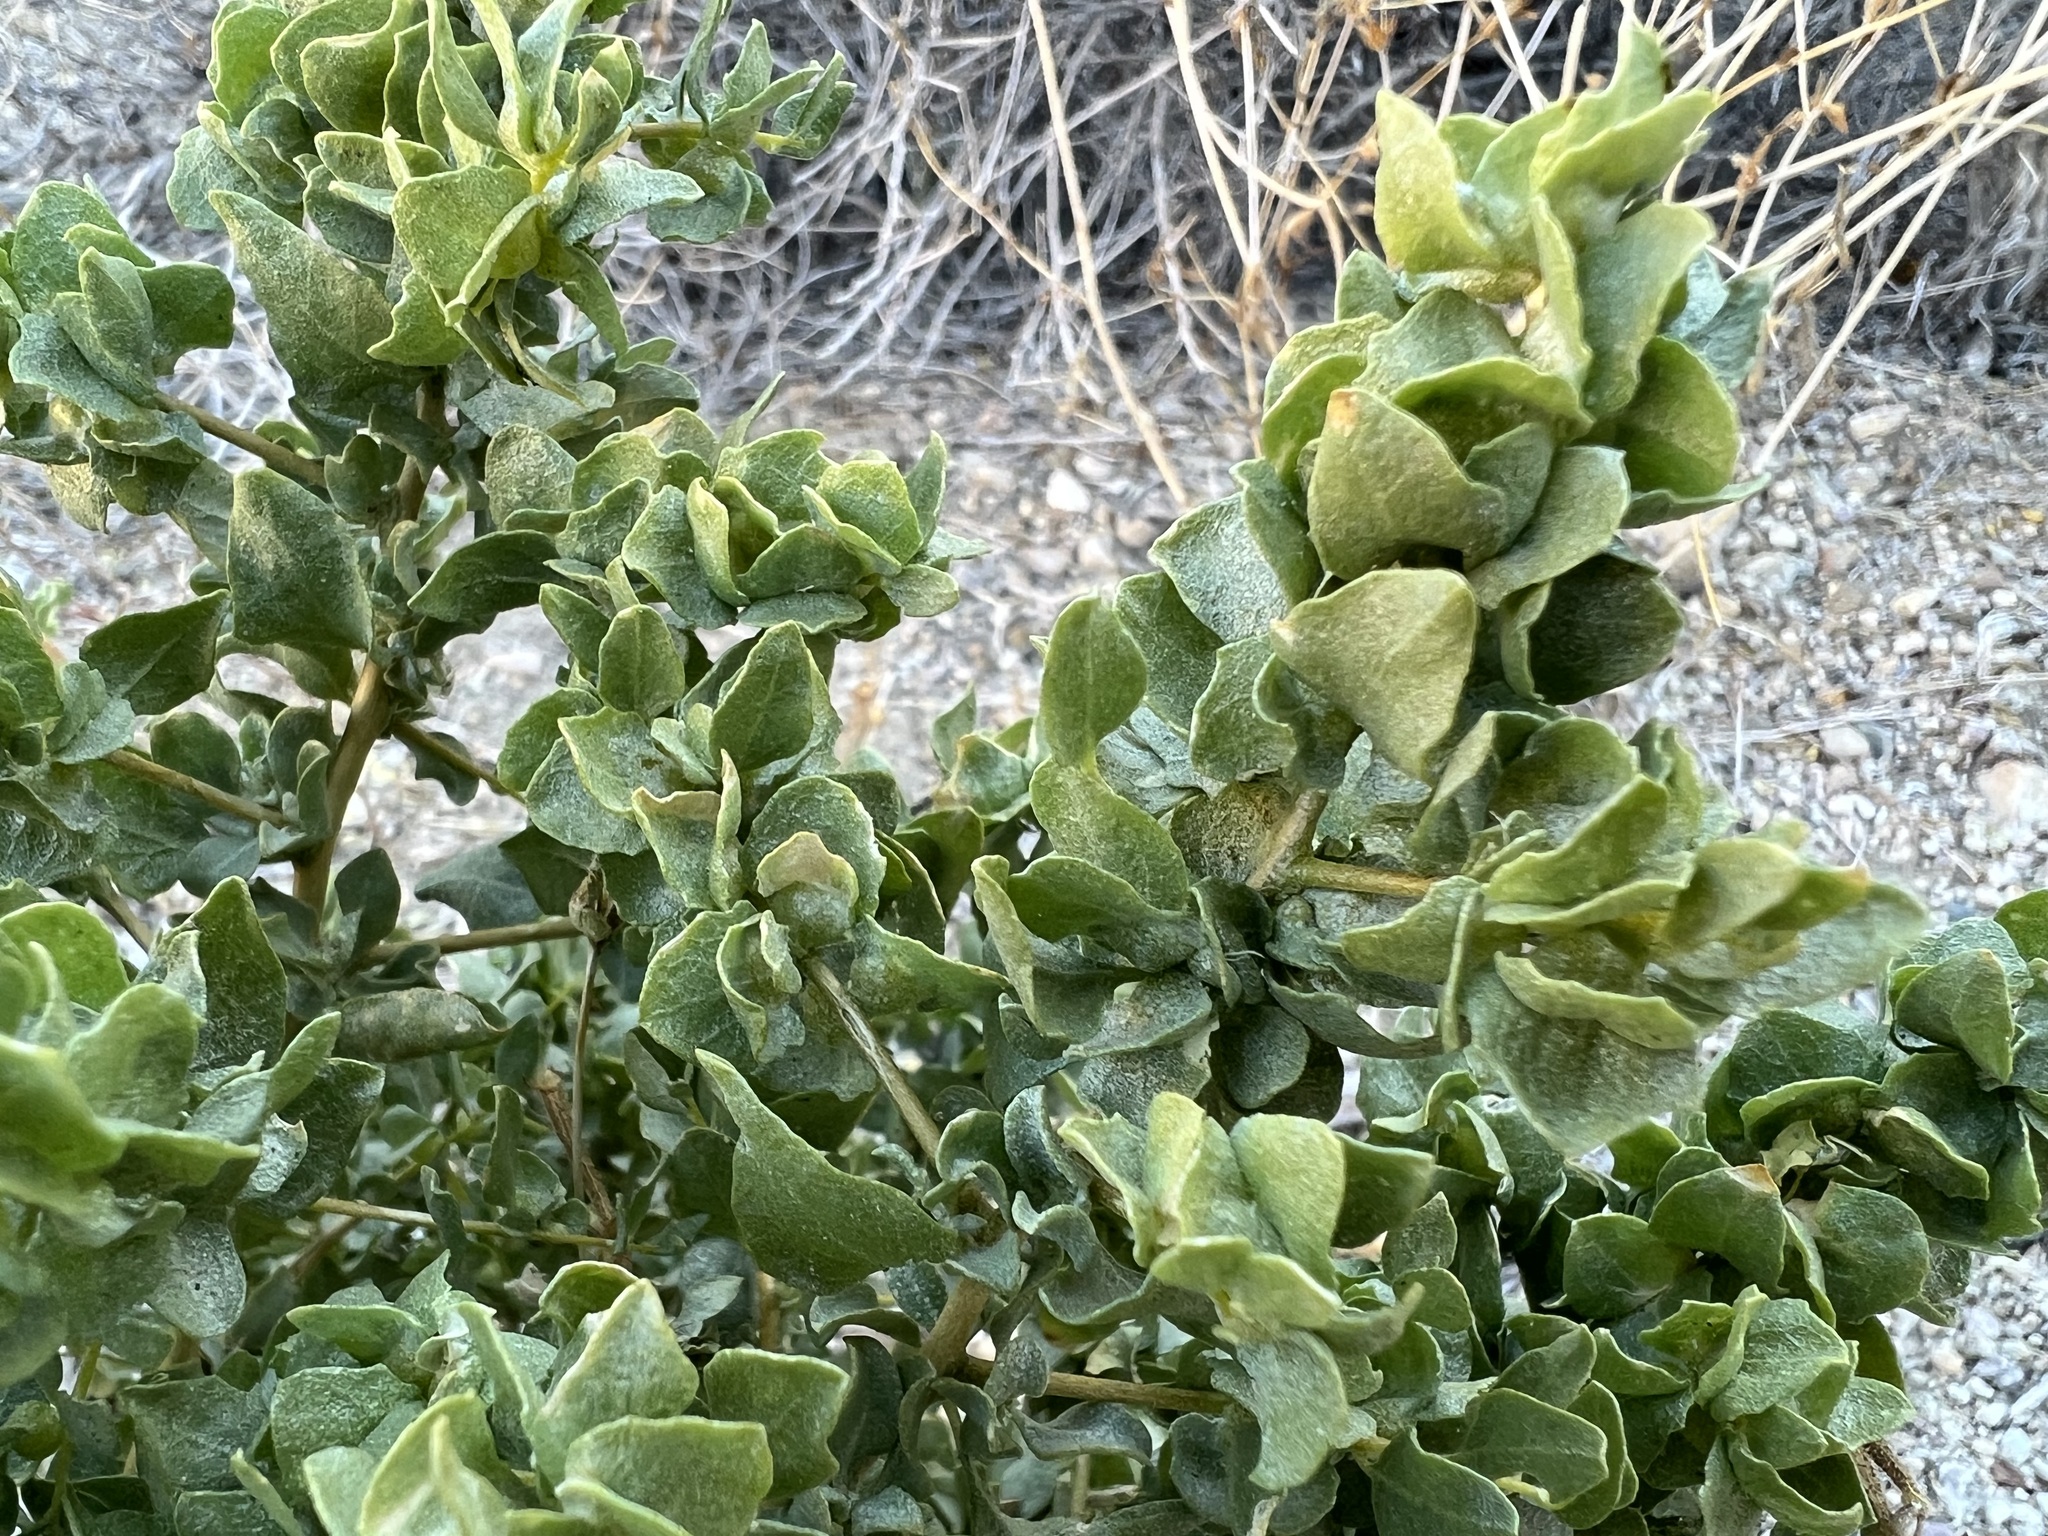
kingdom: Plantae
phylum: Tracheophyta
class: Magnoliopsida
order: Caryophyllales
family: Amaranthaceae
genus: Atriplex
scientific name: Atriplex confertifolia
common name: Shadscale
